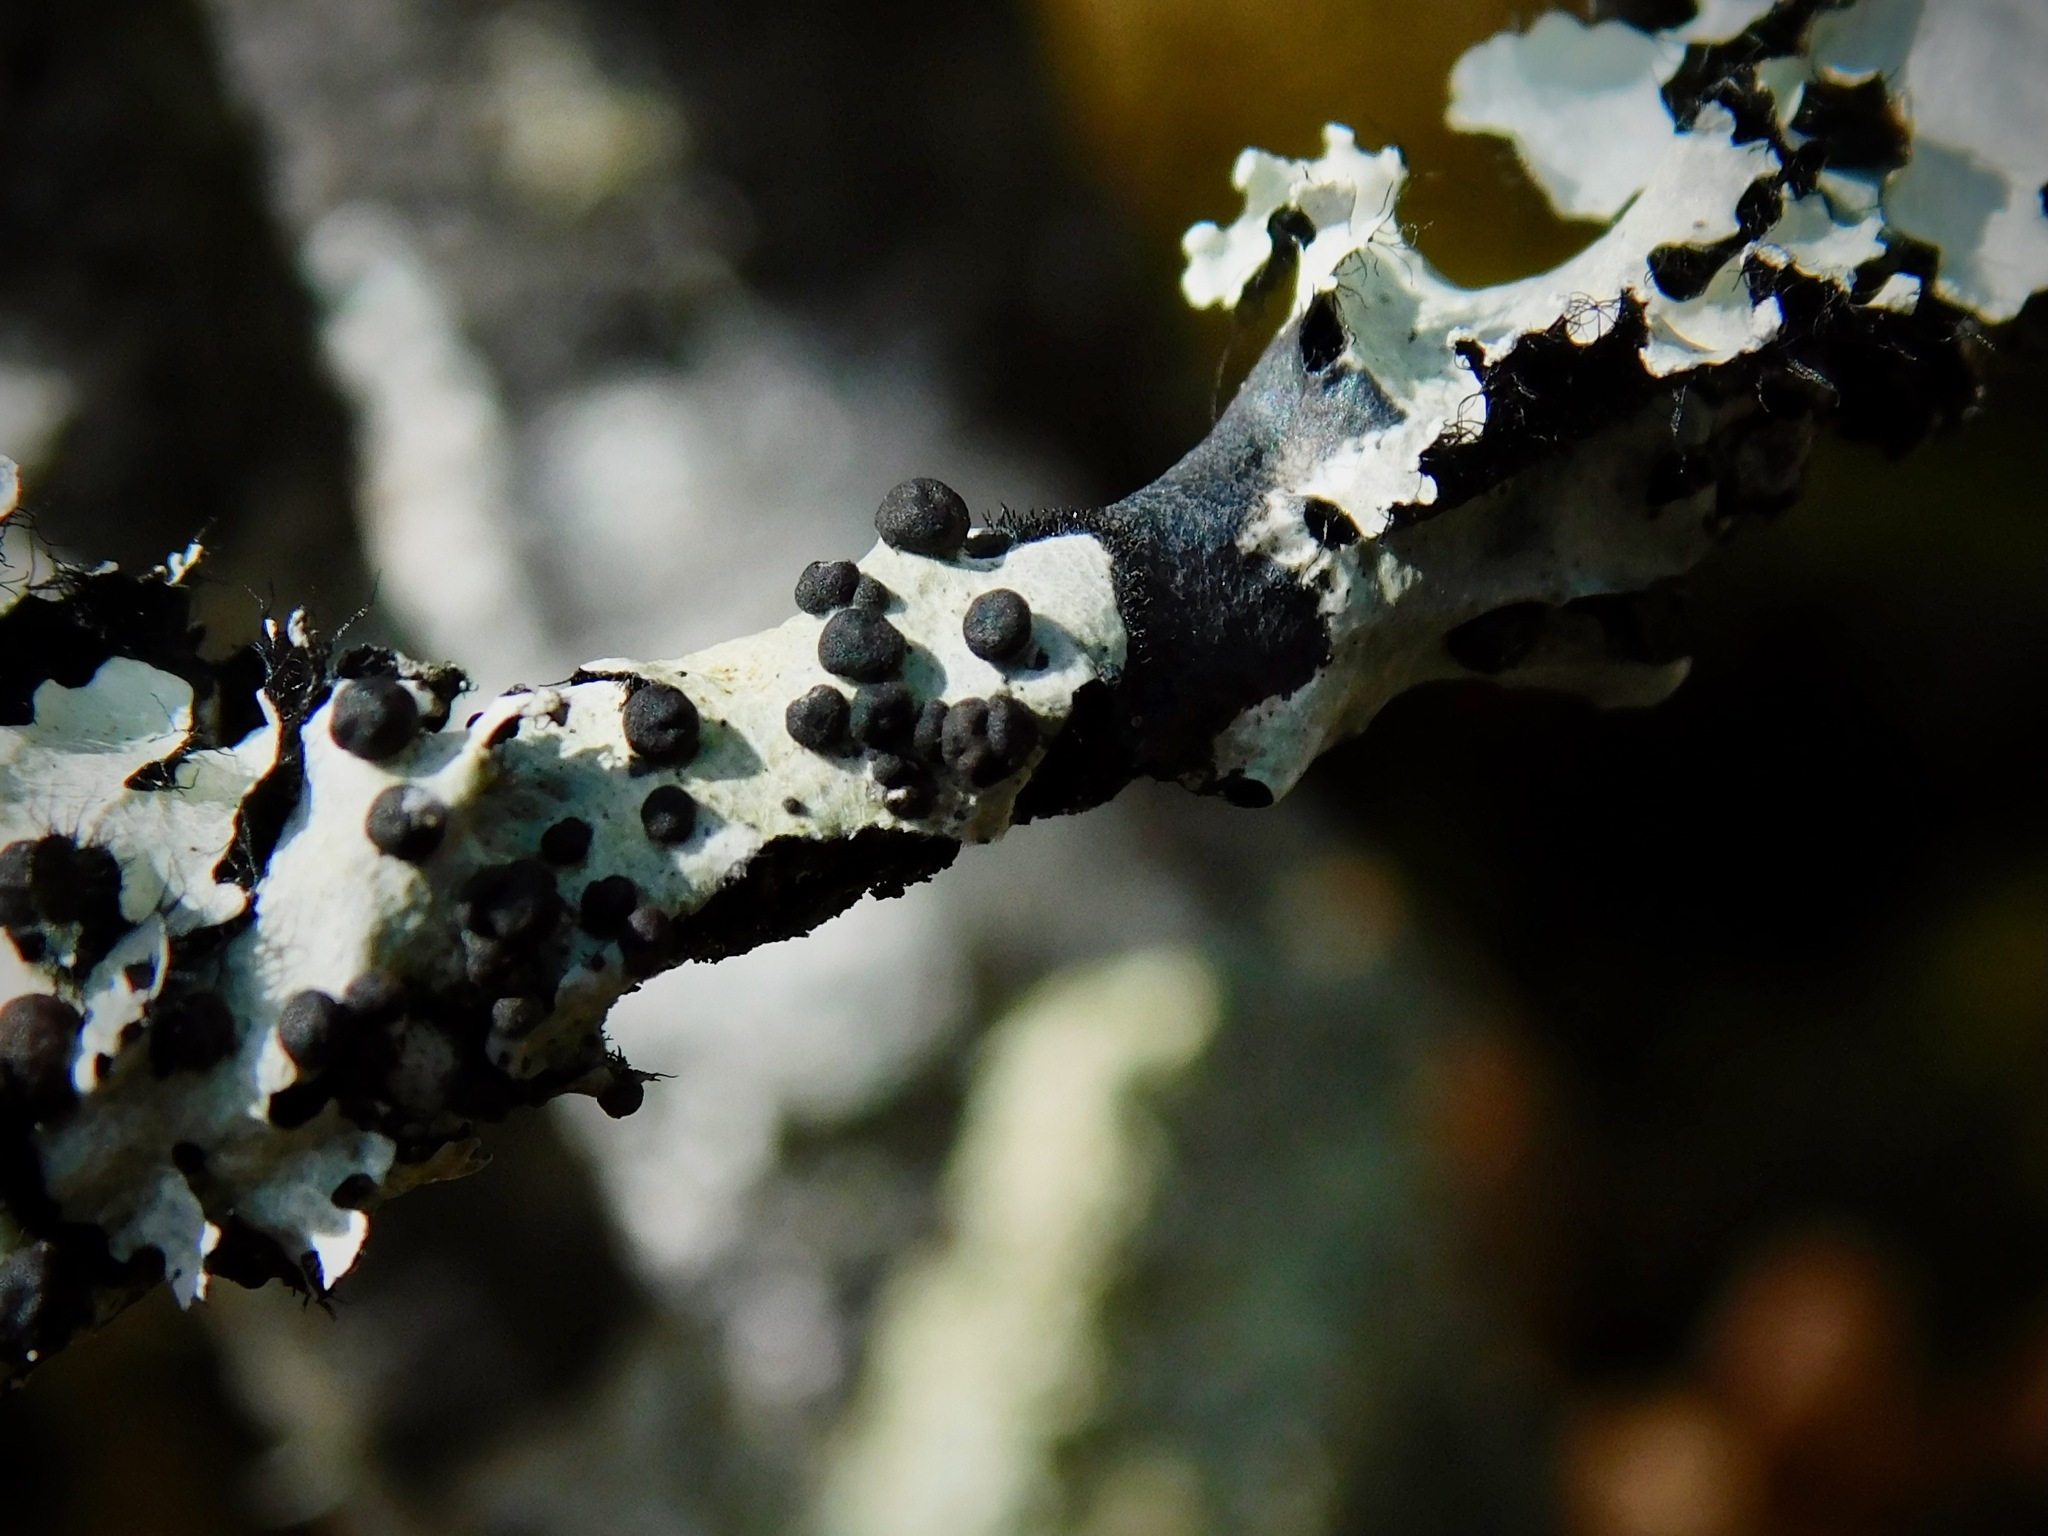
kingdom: Fungi
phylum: Basidiomycota
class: Tremellomycetes
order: Tremellales
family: Tremellaceae
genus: Tremella
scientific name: Tremella parmeliarum
